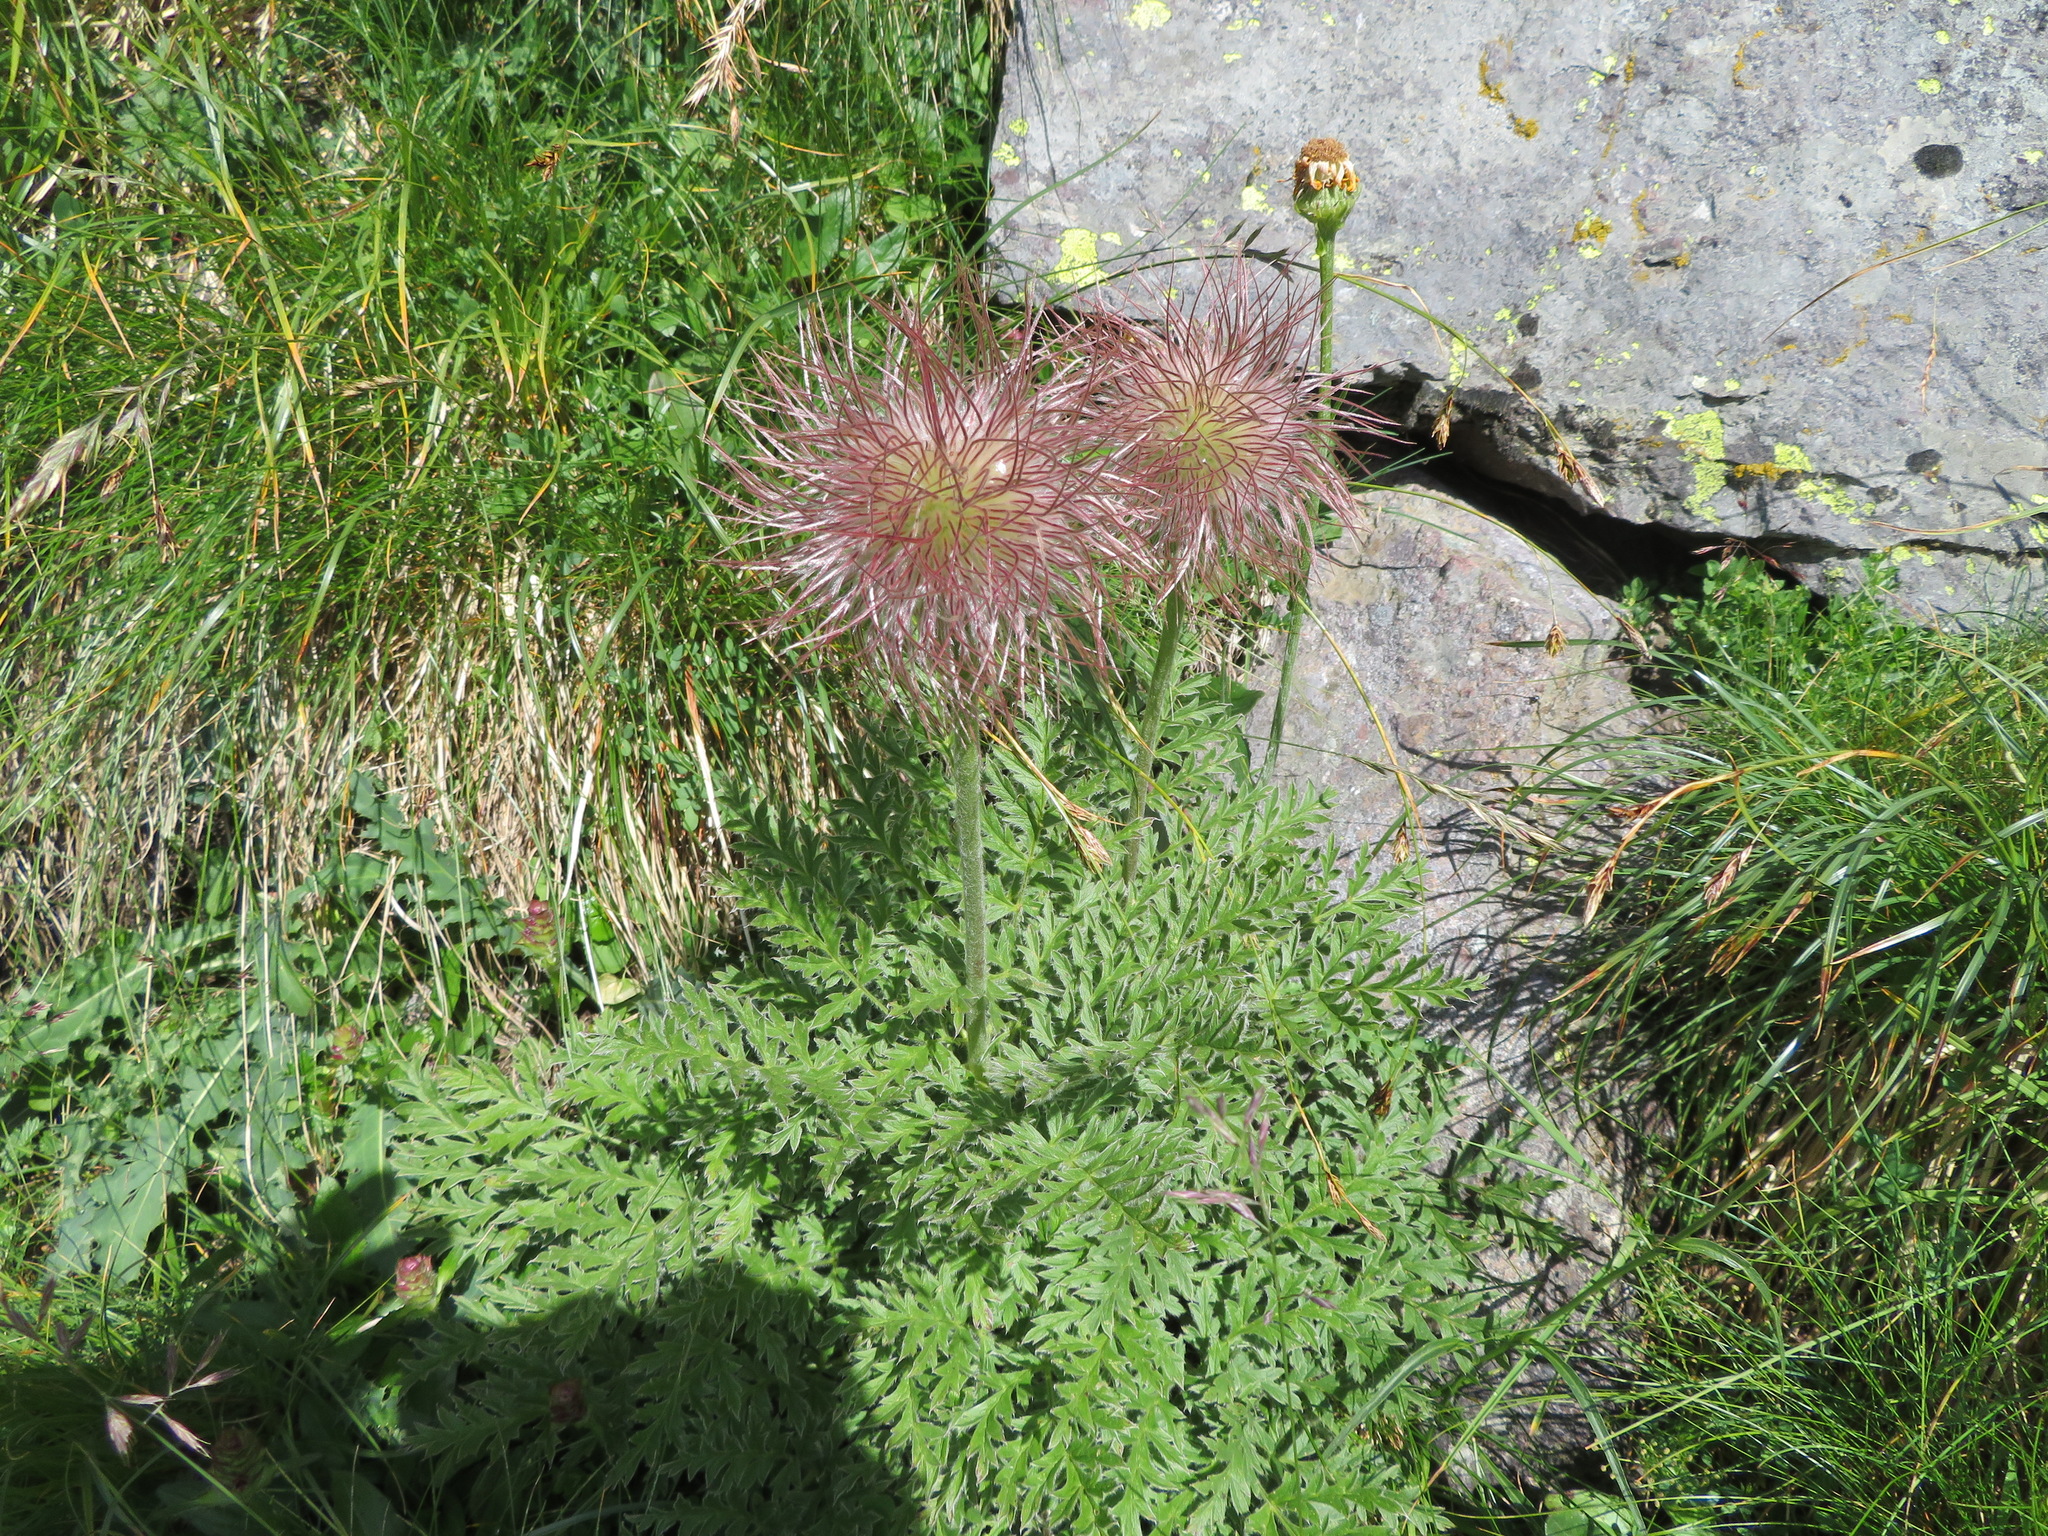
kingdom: Plantae
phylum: Tracheophyta
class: Magnoliopsida
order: Ranunculales
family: Ranunculaceae
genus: Pulsatilla
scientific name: Pulsatilla alpina
